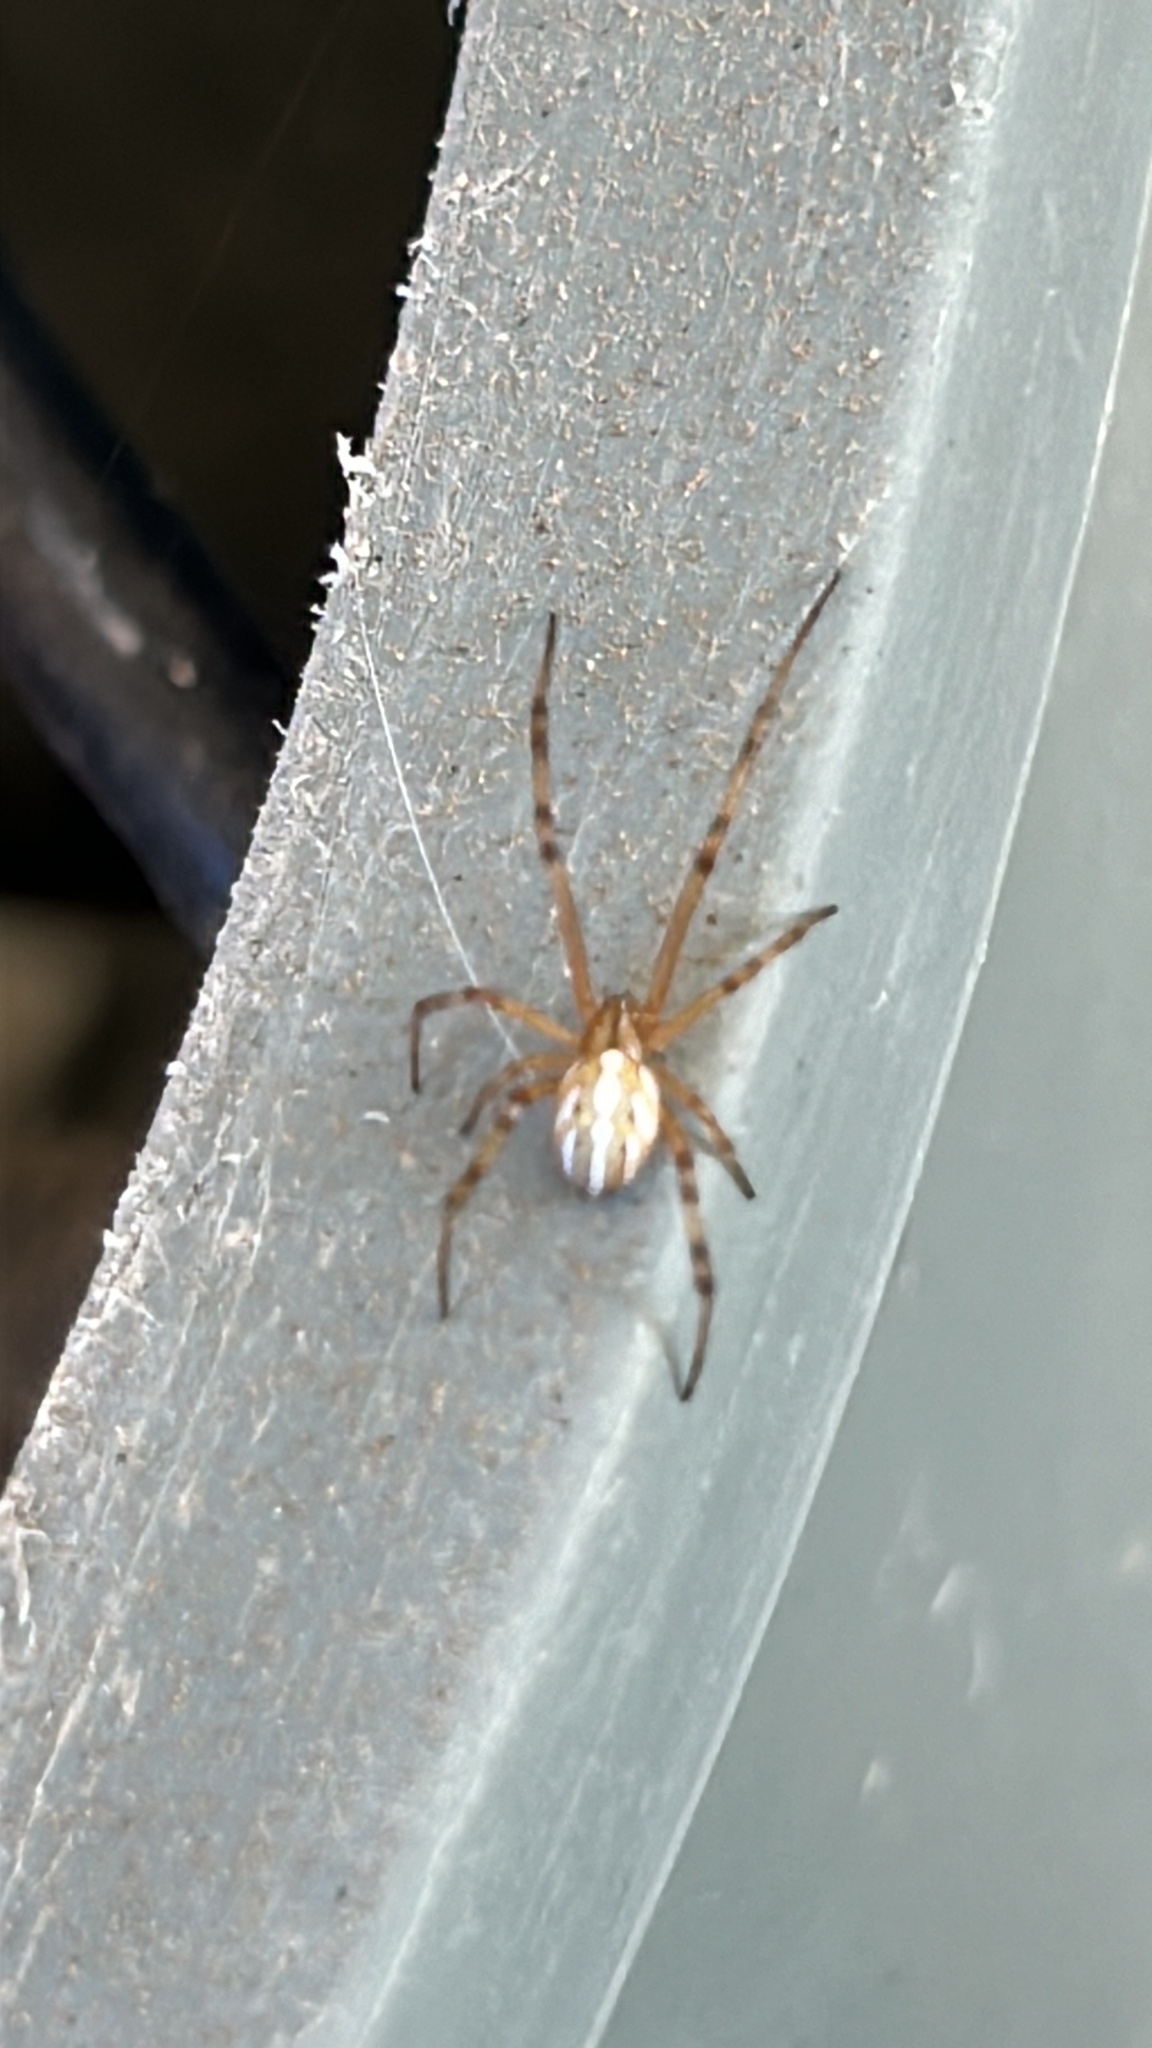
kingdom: Animalia
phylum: Arthropoda
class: Arachnida
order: Araneae
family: Theridiidae
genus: Latrodectus
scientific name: Latrodectus geometricus
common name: Brown widow spider
